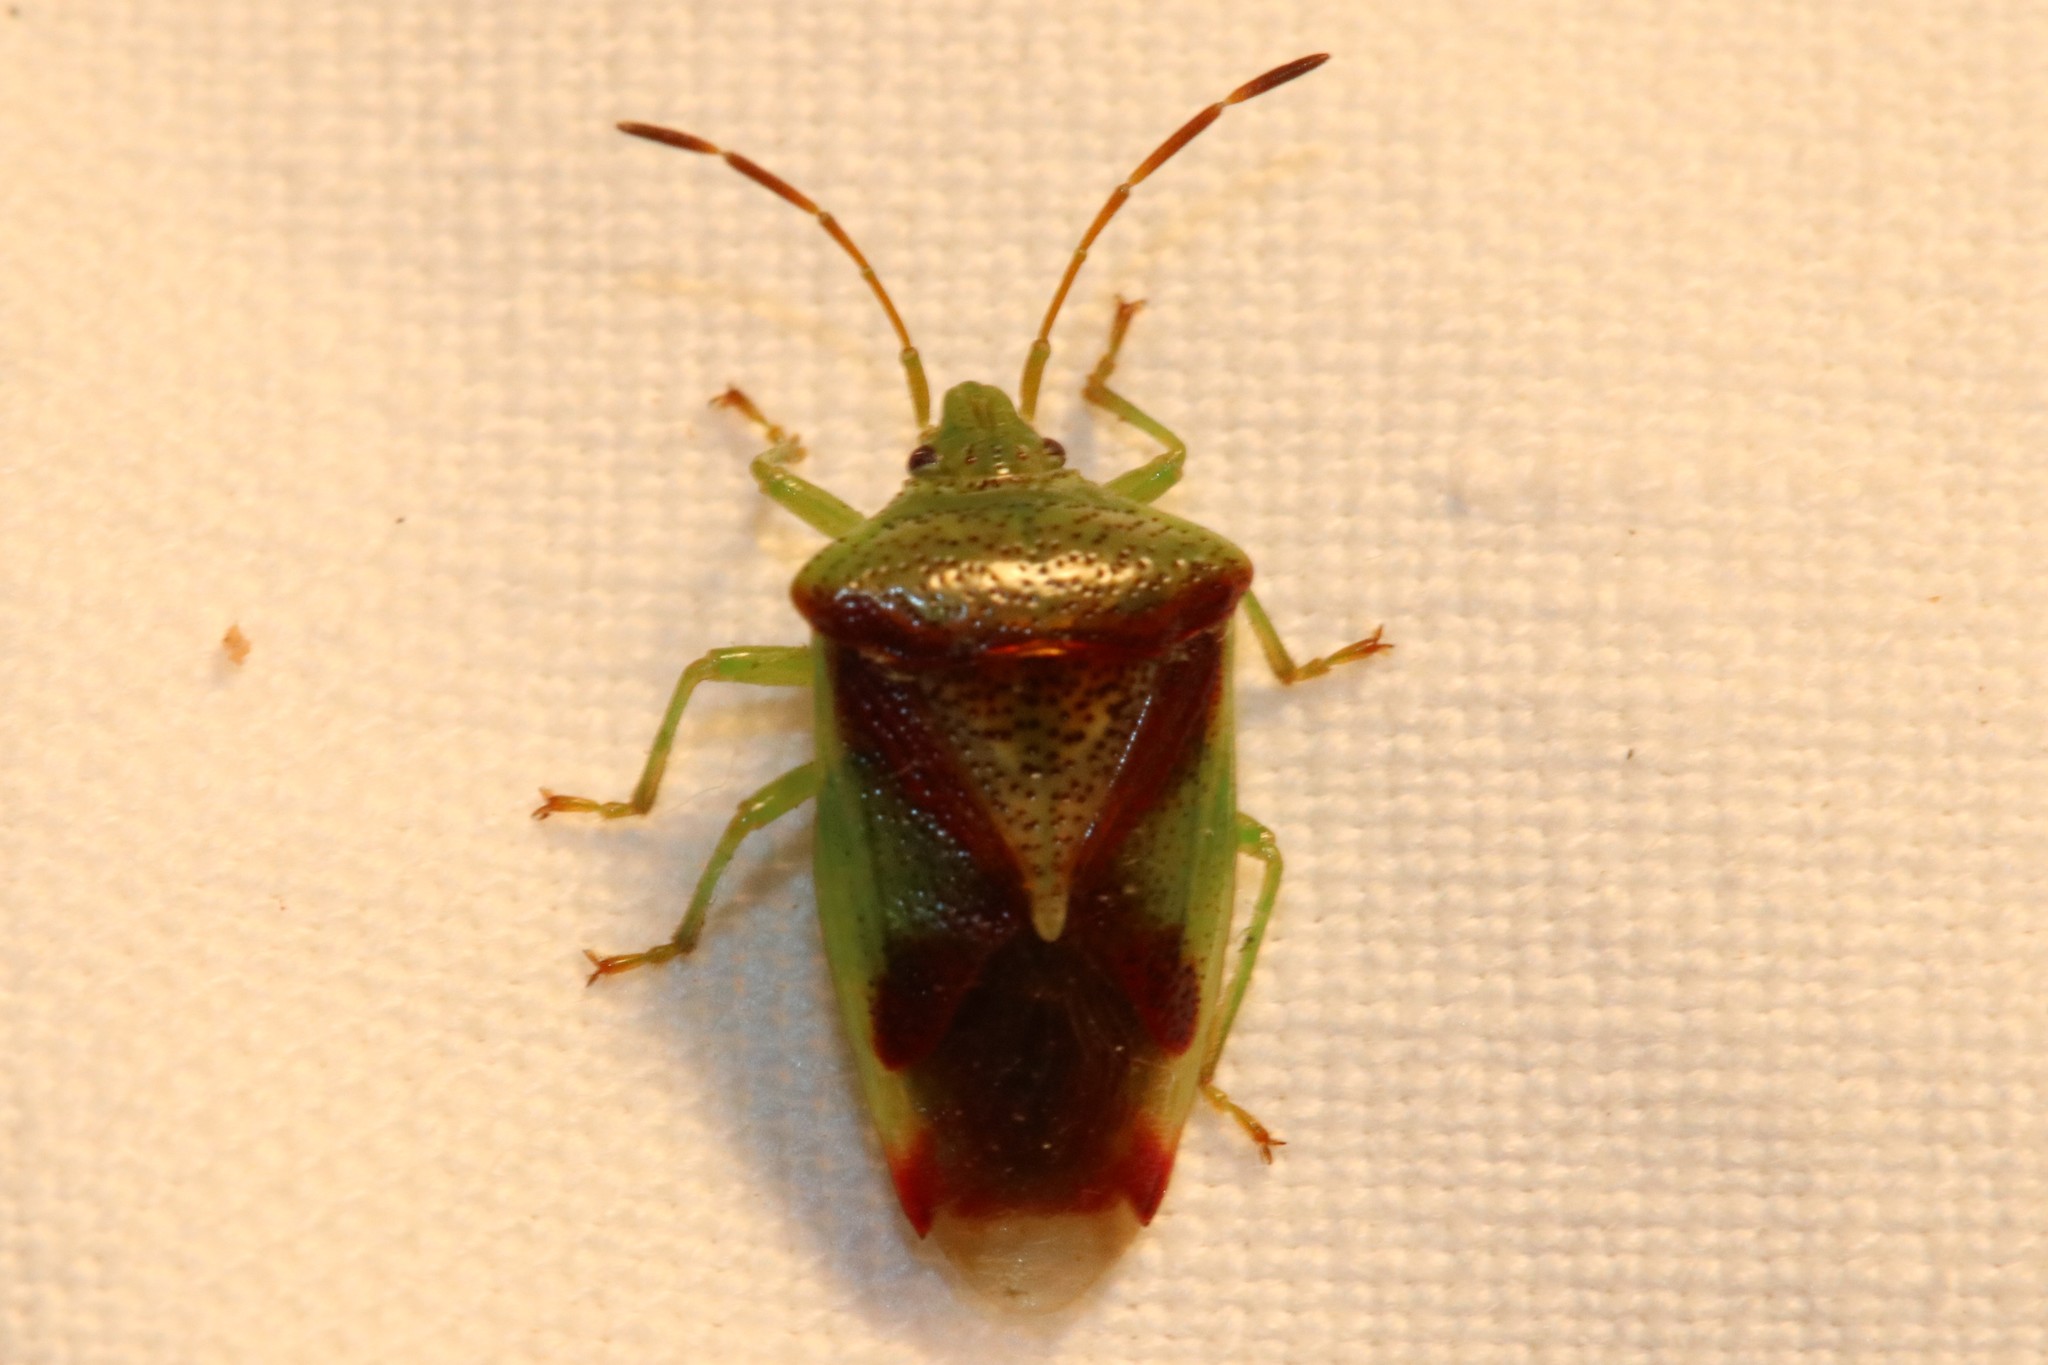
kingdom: Animalia
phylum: Arthropoda
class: Insecta
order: Hemiptera
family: Acanthosomatidae
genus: Elasmostethus
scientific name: Elasmostethus cruciatus
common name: Red-cross shield bug
